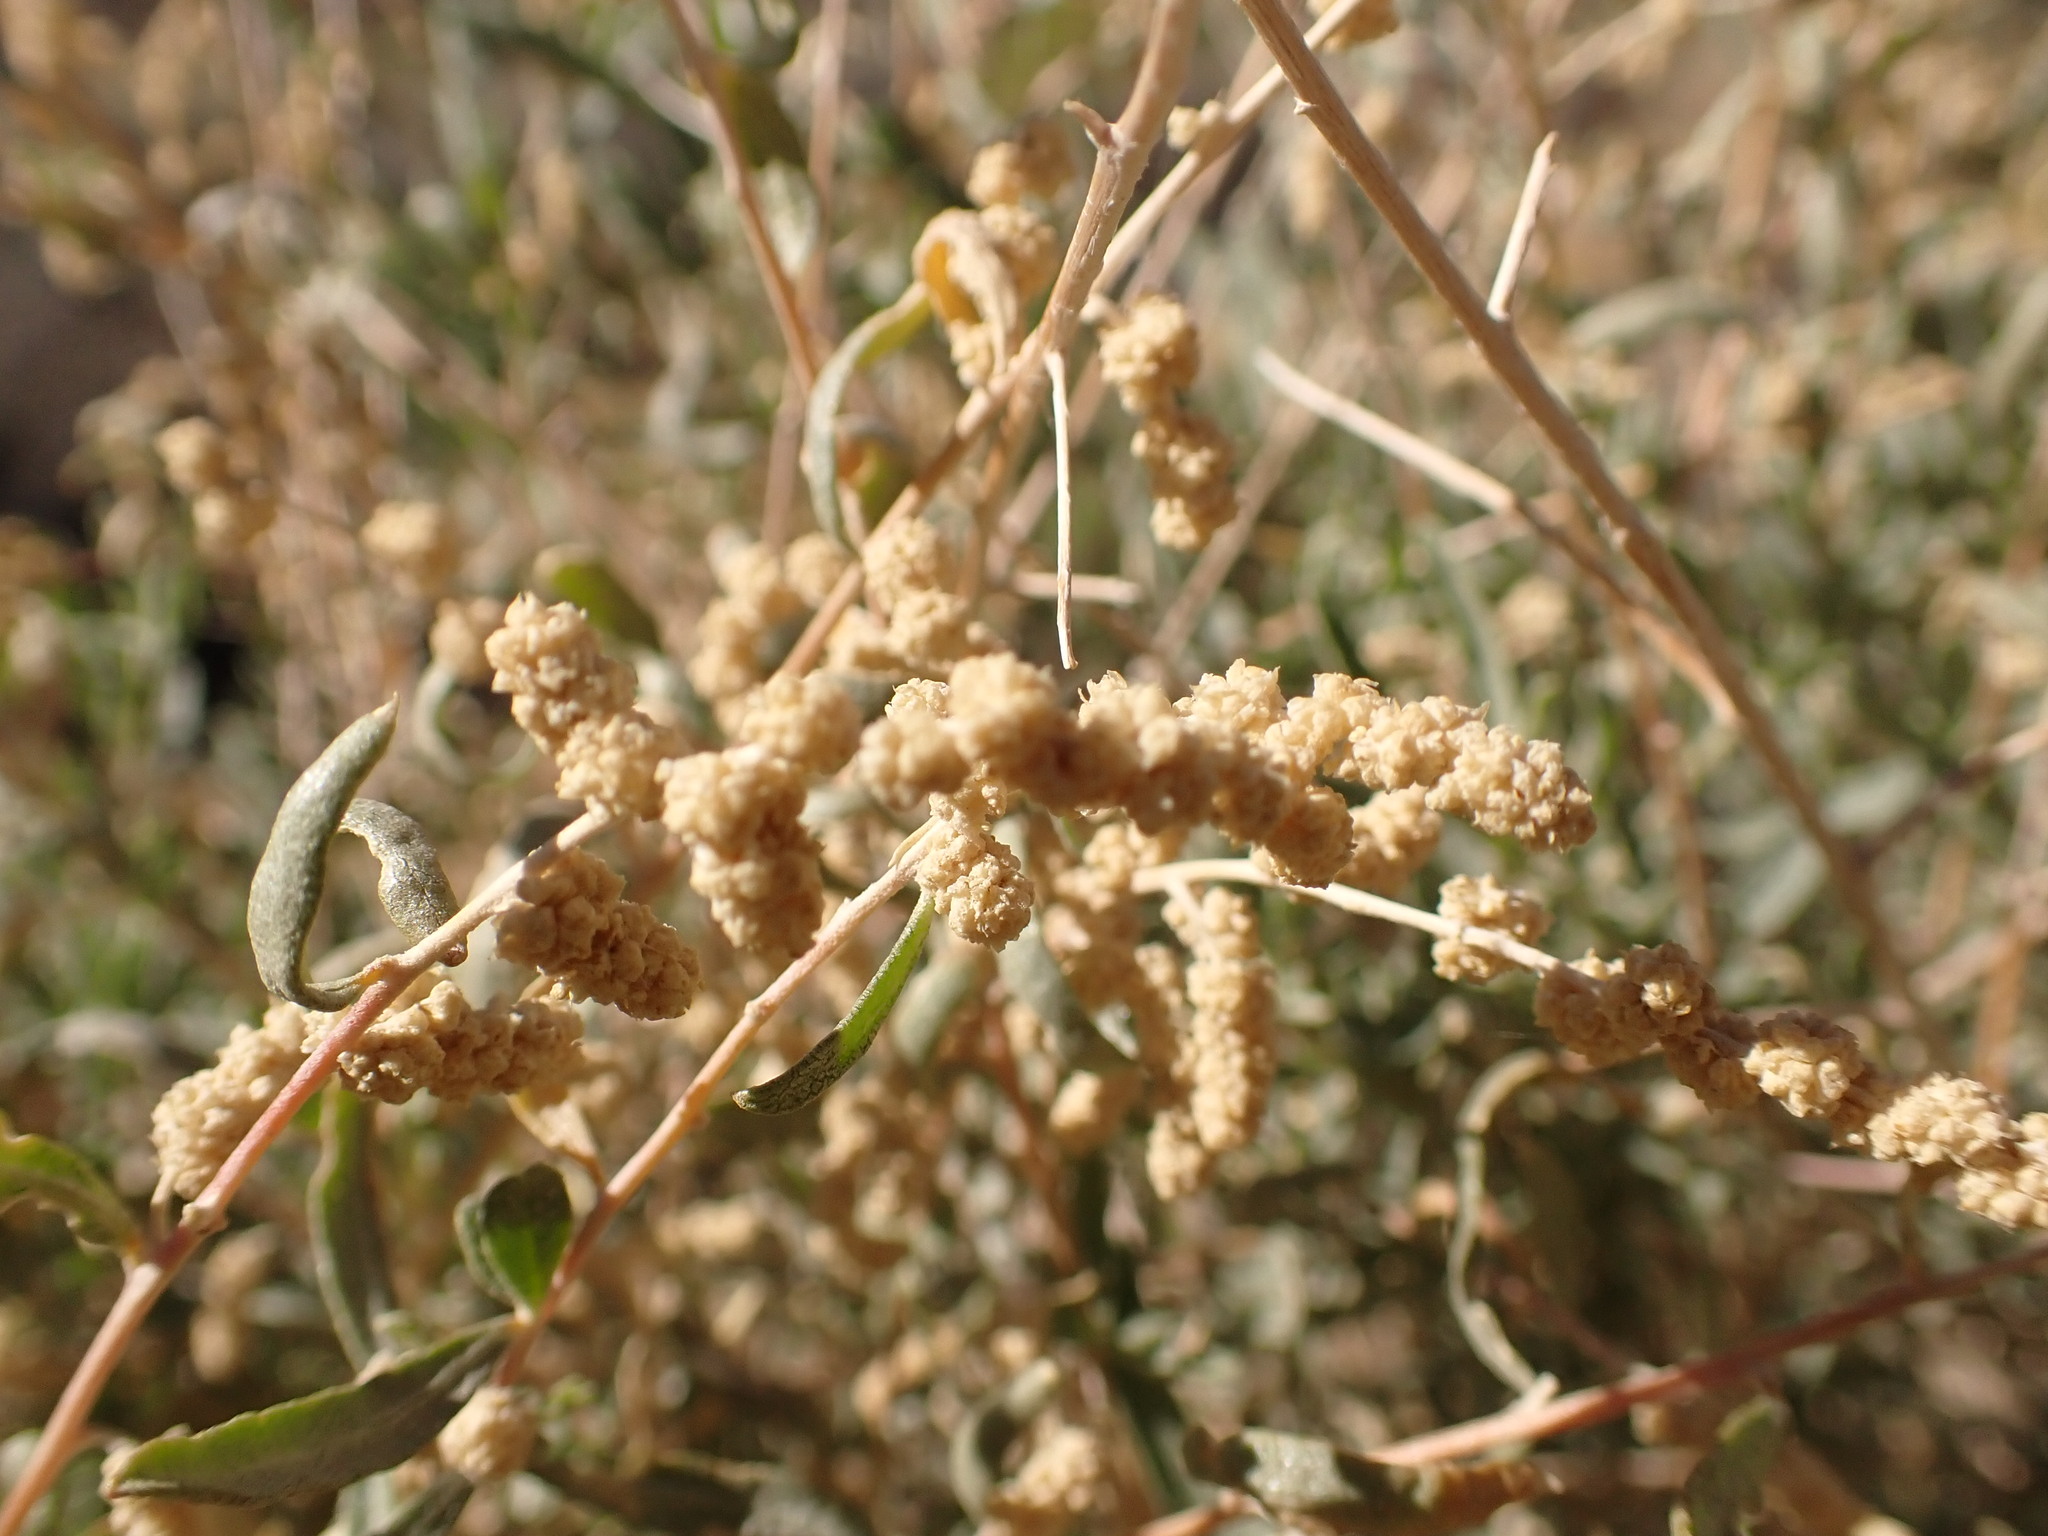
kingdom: Plantae
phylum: Tracheophyta
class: Magnoliopsida
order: Caryophyllales
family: Amaranthaceae
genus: Atriplex
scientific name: Atriplex canescens
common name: Four-wing saltbush
